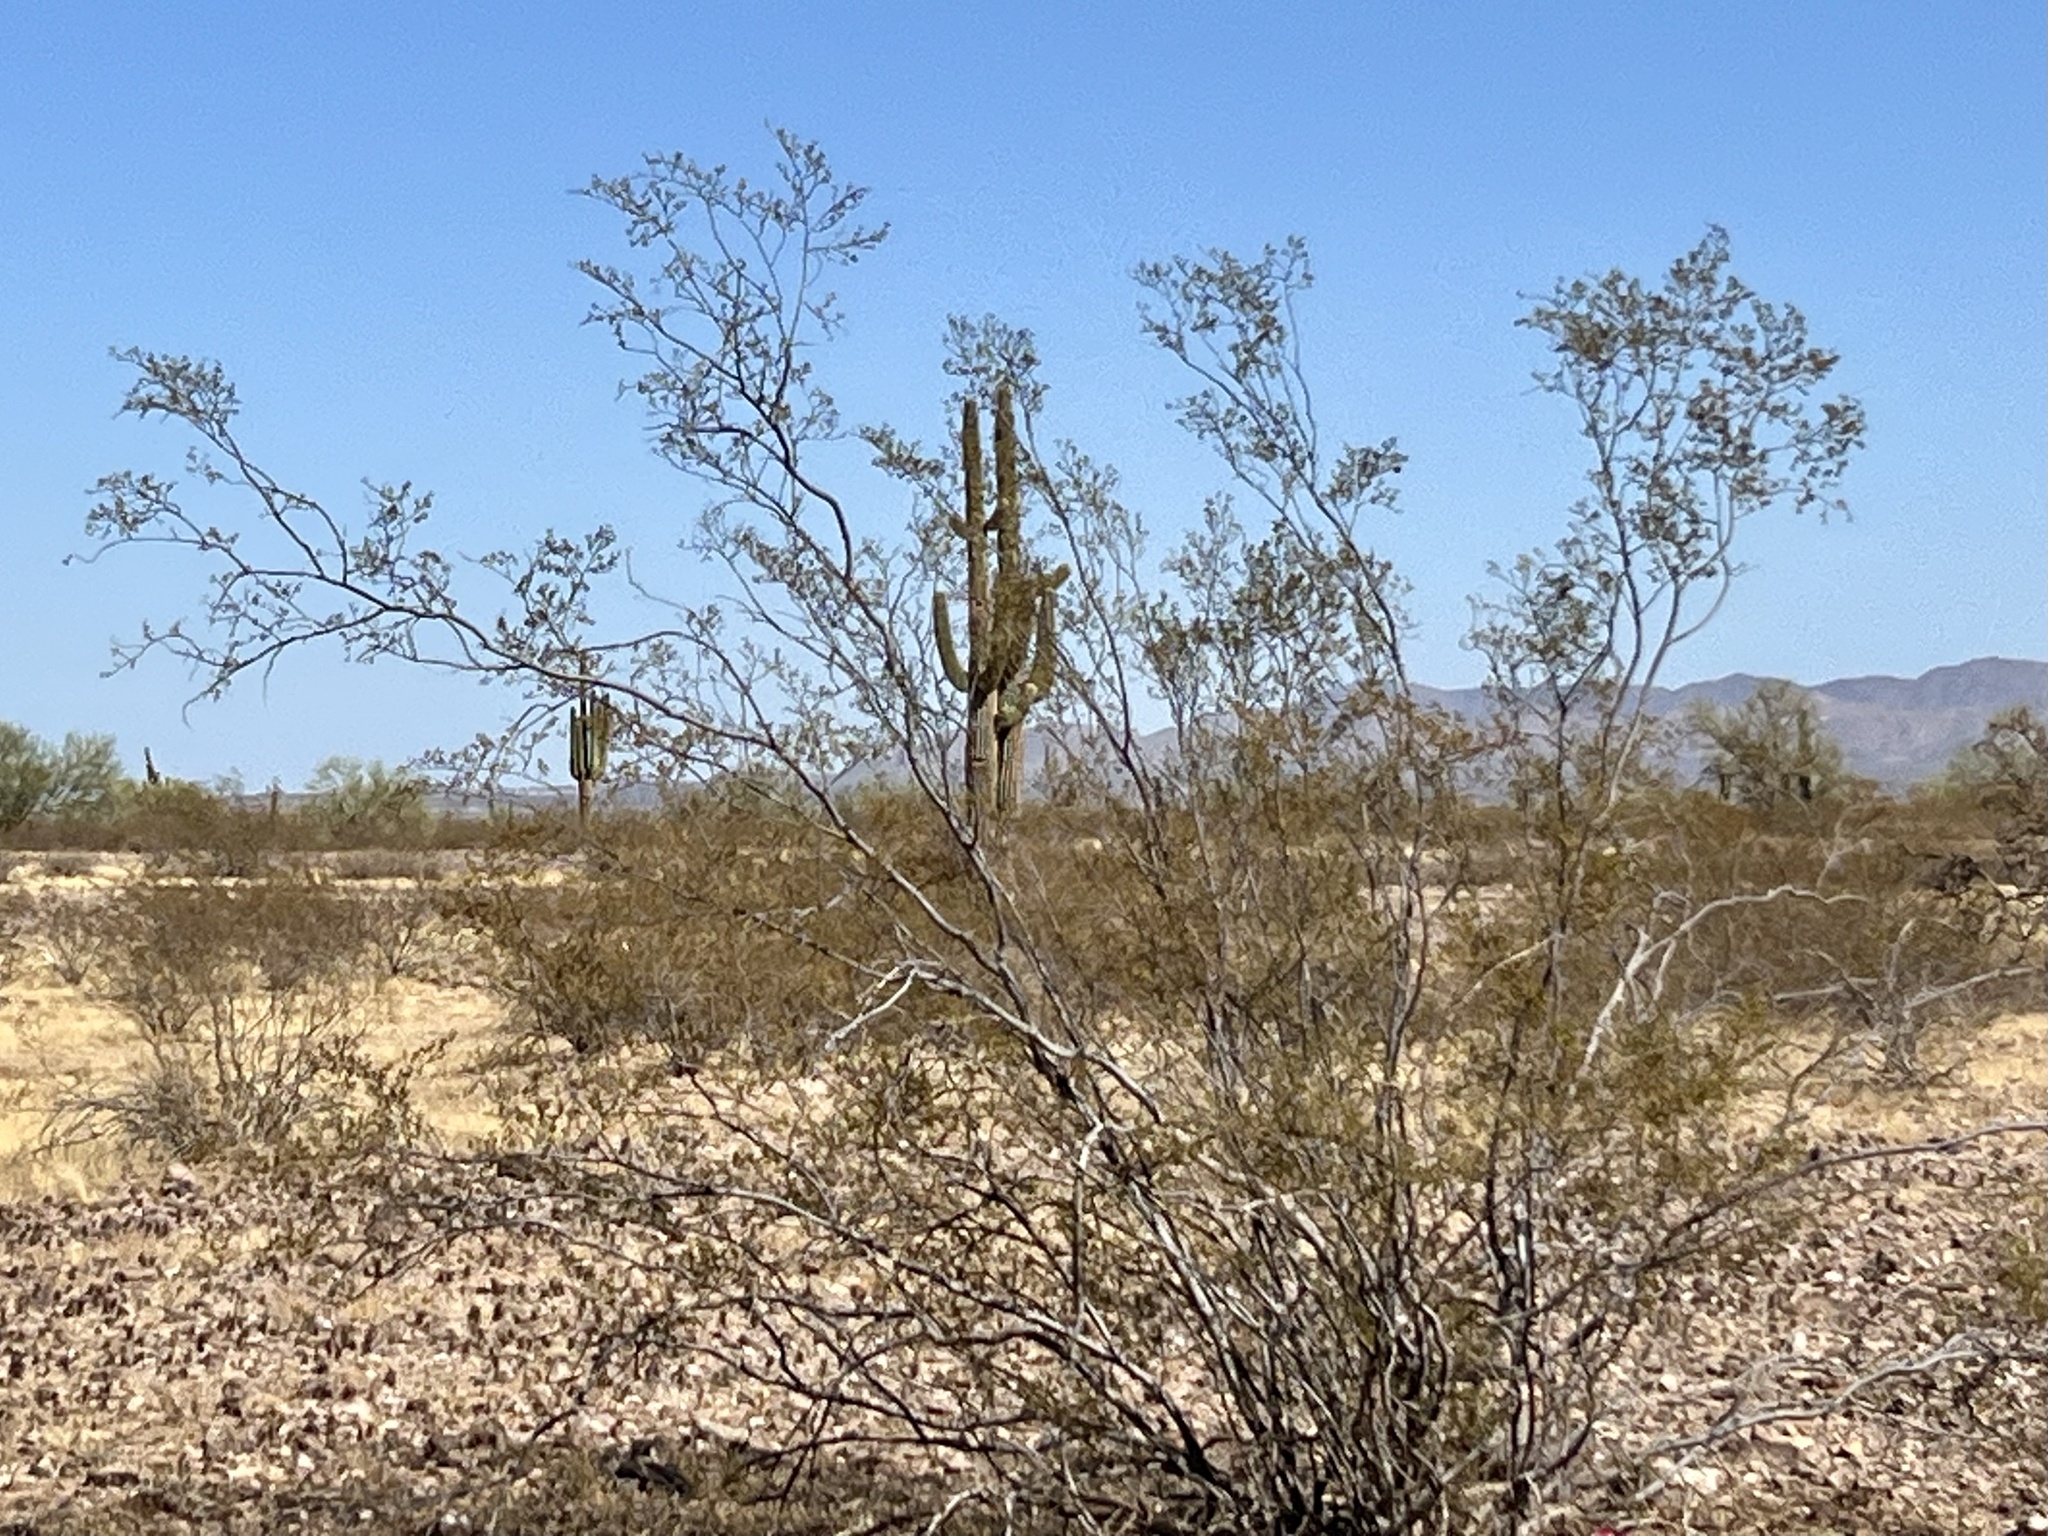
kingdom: Plantae
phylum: Tracheophyta
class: Magnoliopsida
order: Zygophyllales
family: Zygophyllaceae
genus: Larrea
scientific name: Larrea tridentata
